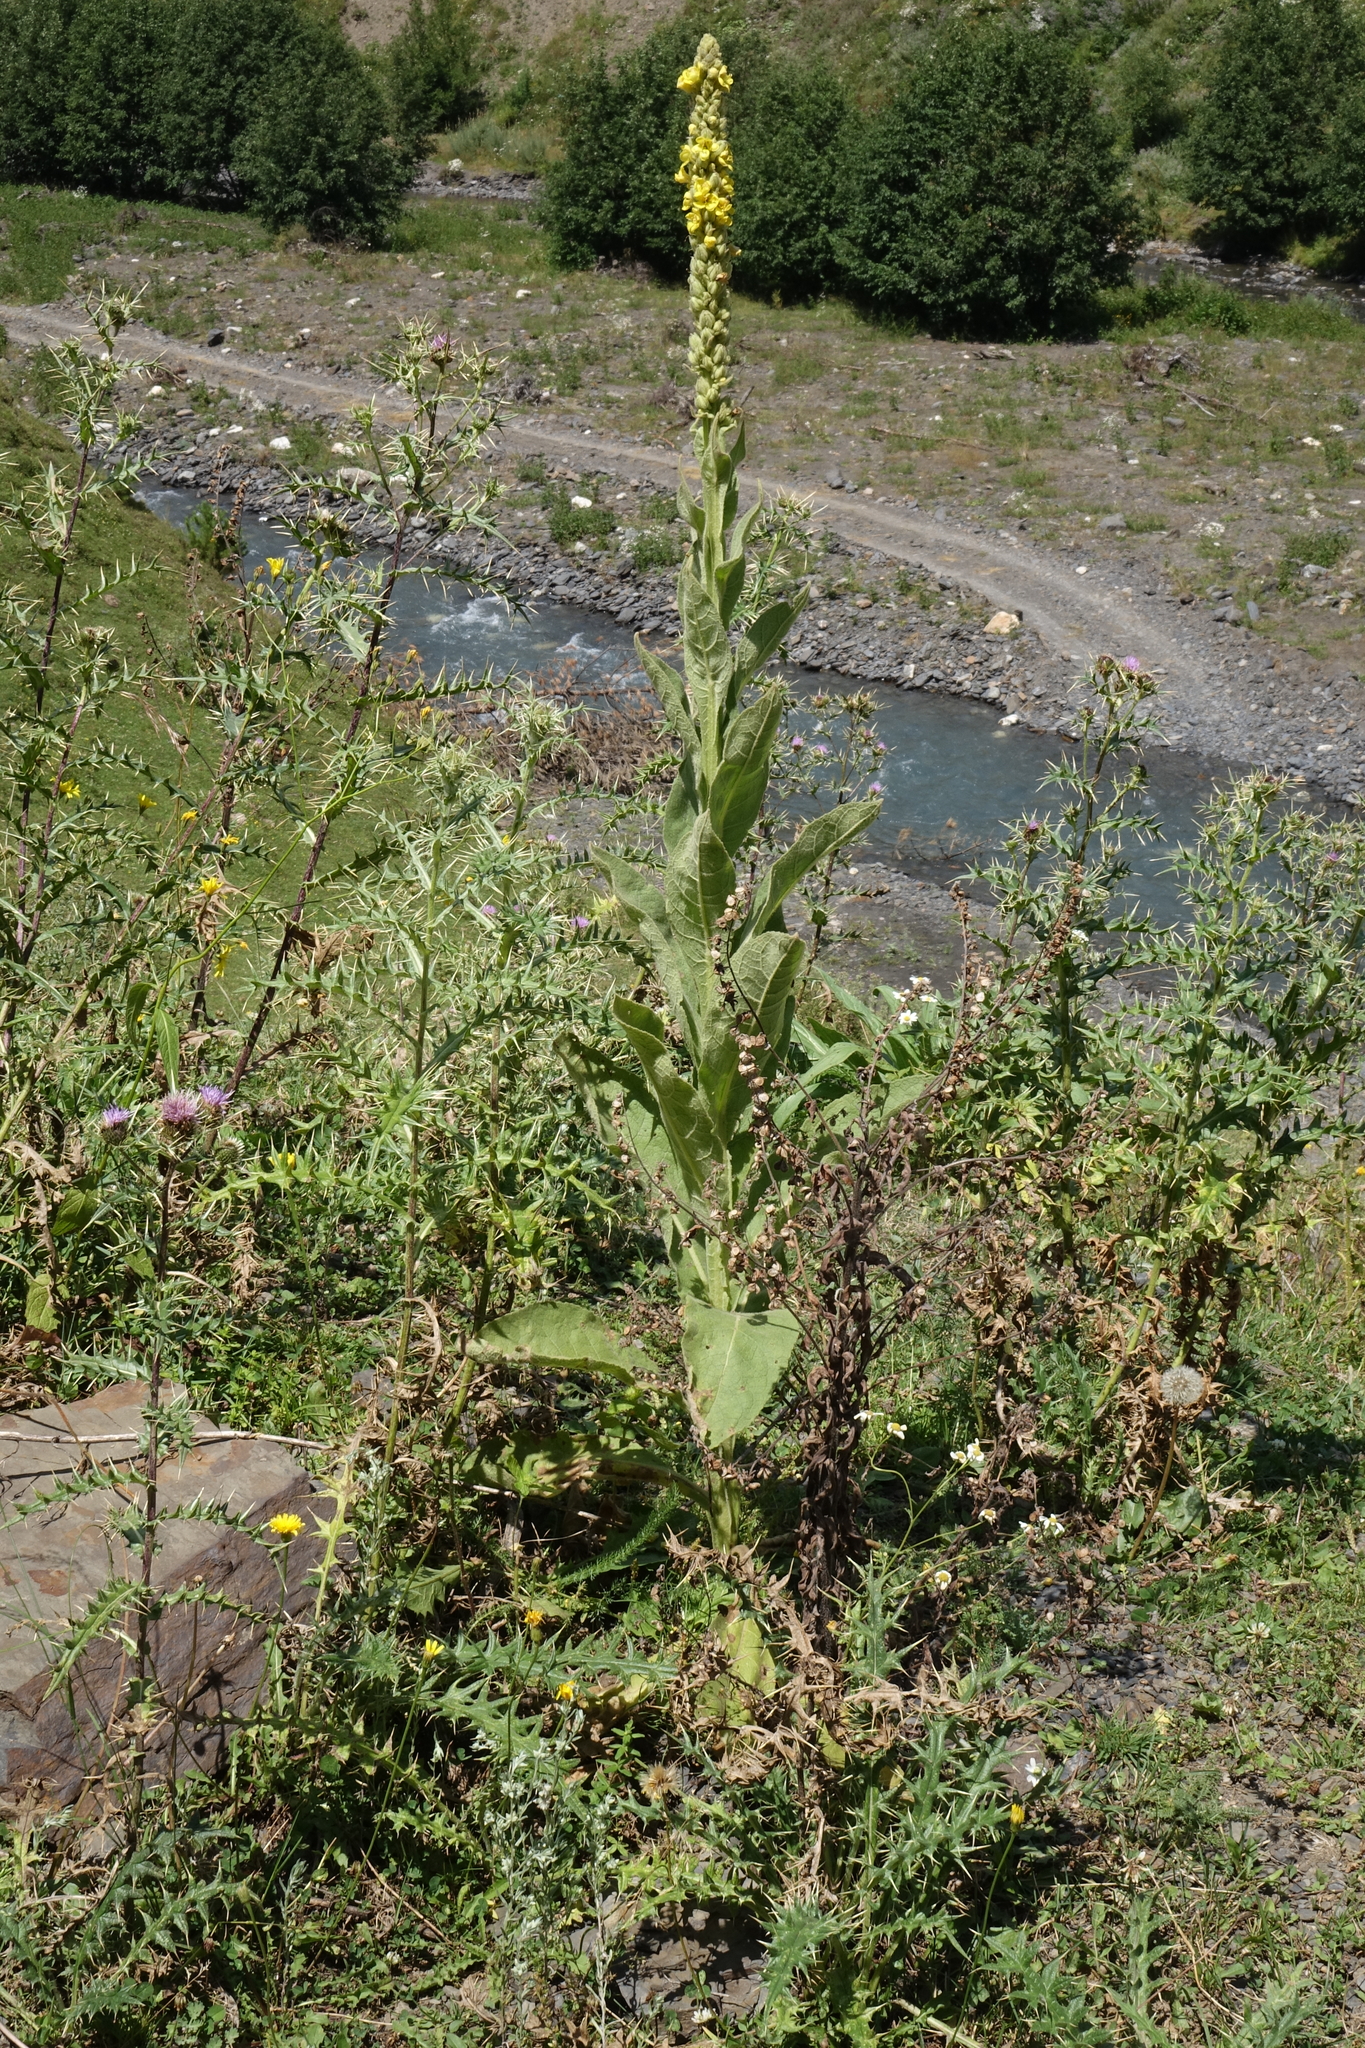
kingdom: Plantae
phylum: Tracheophyta
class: Magnoliopsida
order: Lamiales
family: Scrophulariaceae
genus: Verbascum
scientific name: Verbascum thapsus
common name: Common mullein
